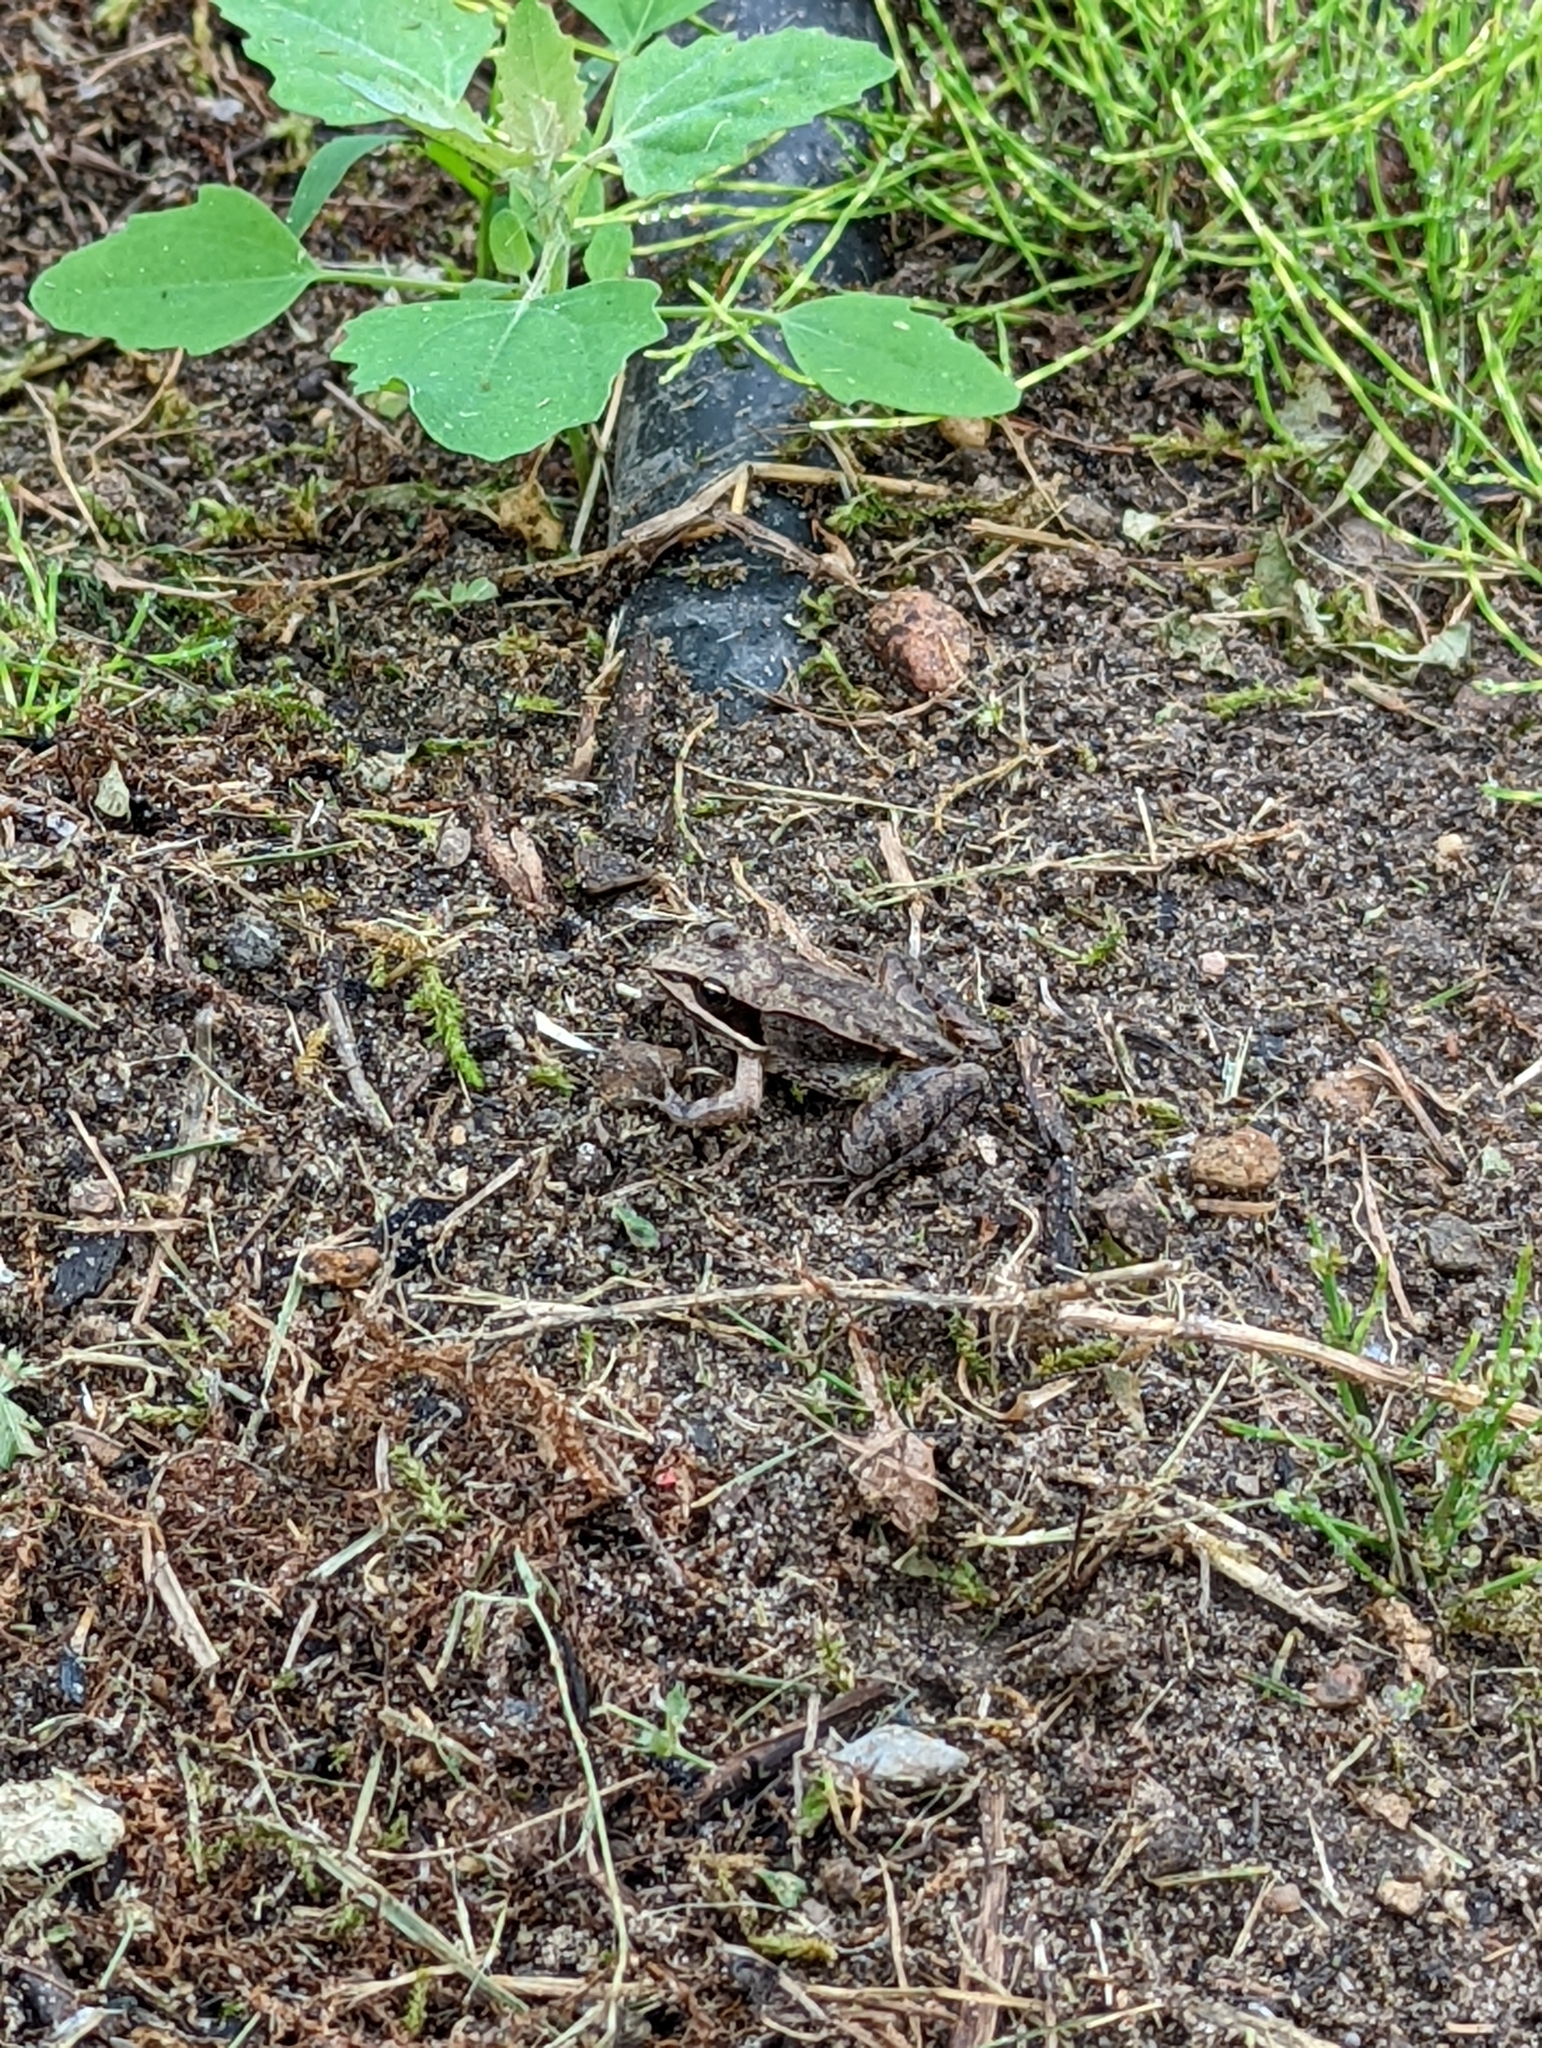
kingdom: Animalia
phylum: Chordata
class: Amphibia
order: Anura
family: Ranidae
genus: Lithobates
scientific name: Lithobates sylvaticus
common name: Wood frog
